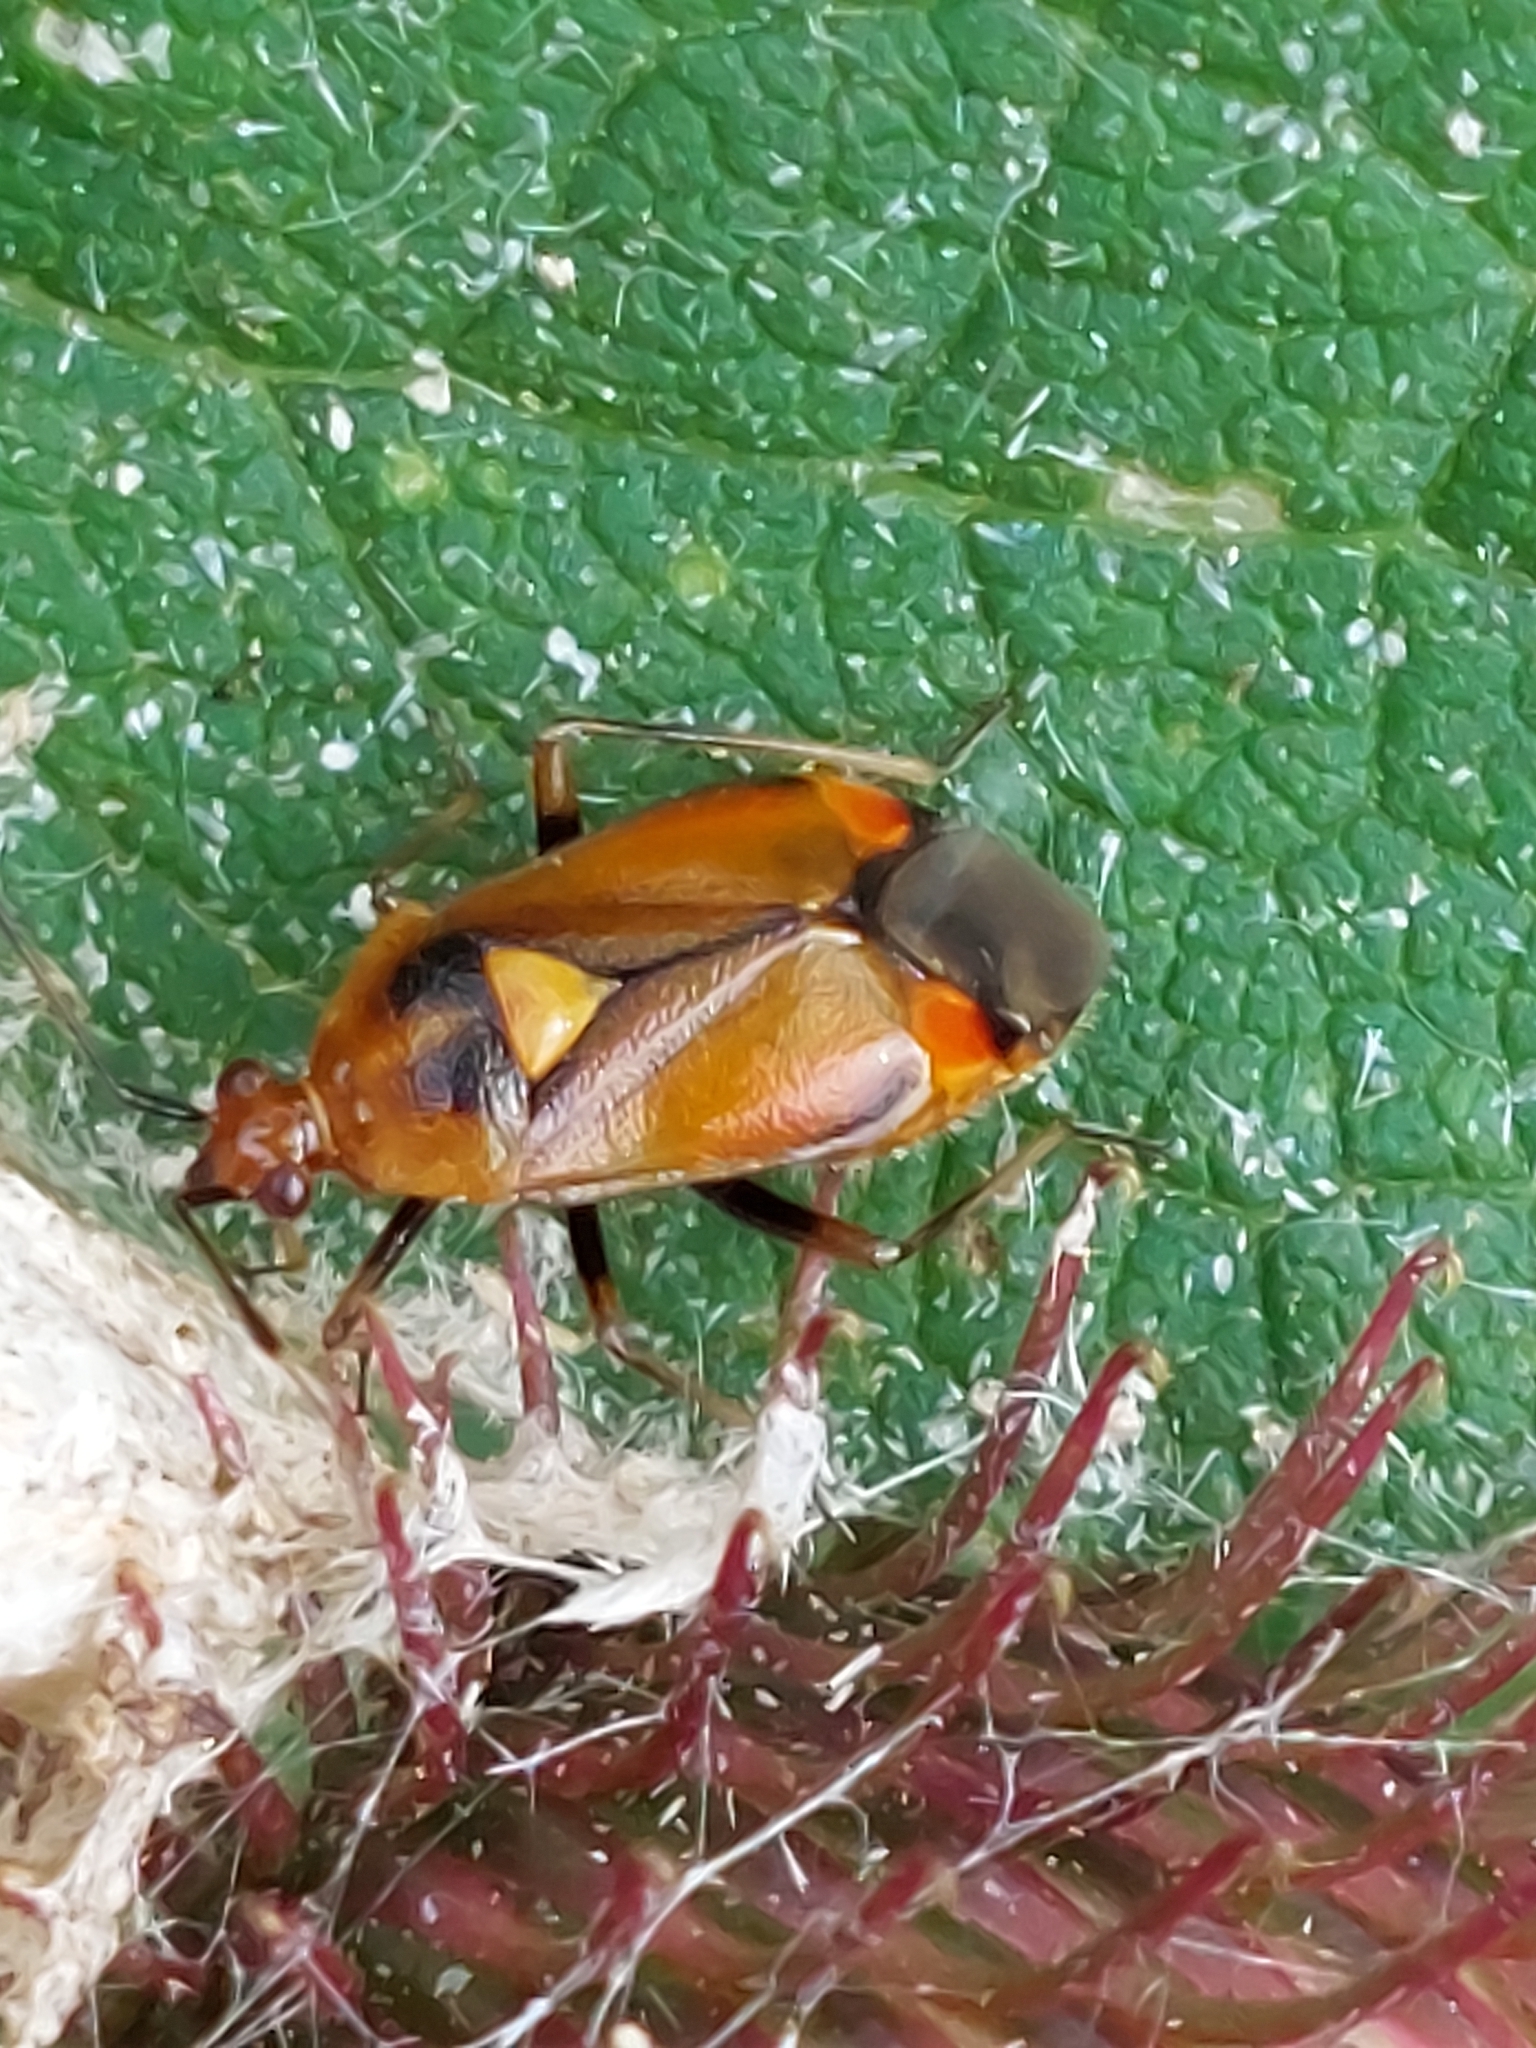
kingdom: Animalia
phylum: Arthropoda
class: Insecta
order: Hemiptera
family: Miridae
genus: Deraeocoris
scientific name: Deraeocoris ruber
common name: Plant bug
